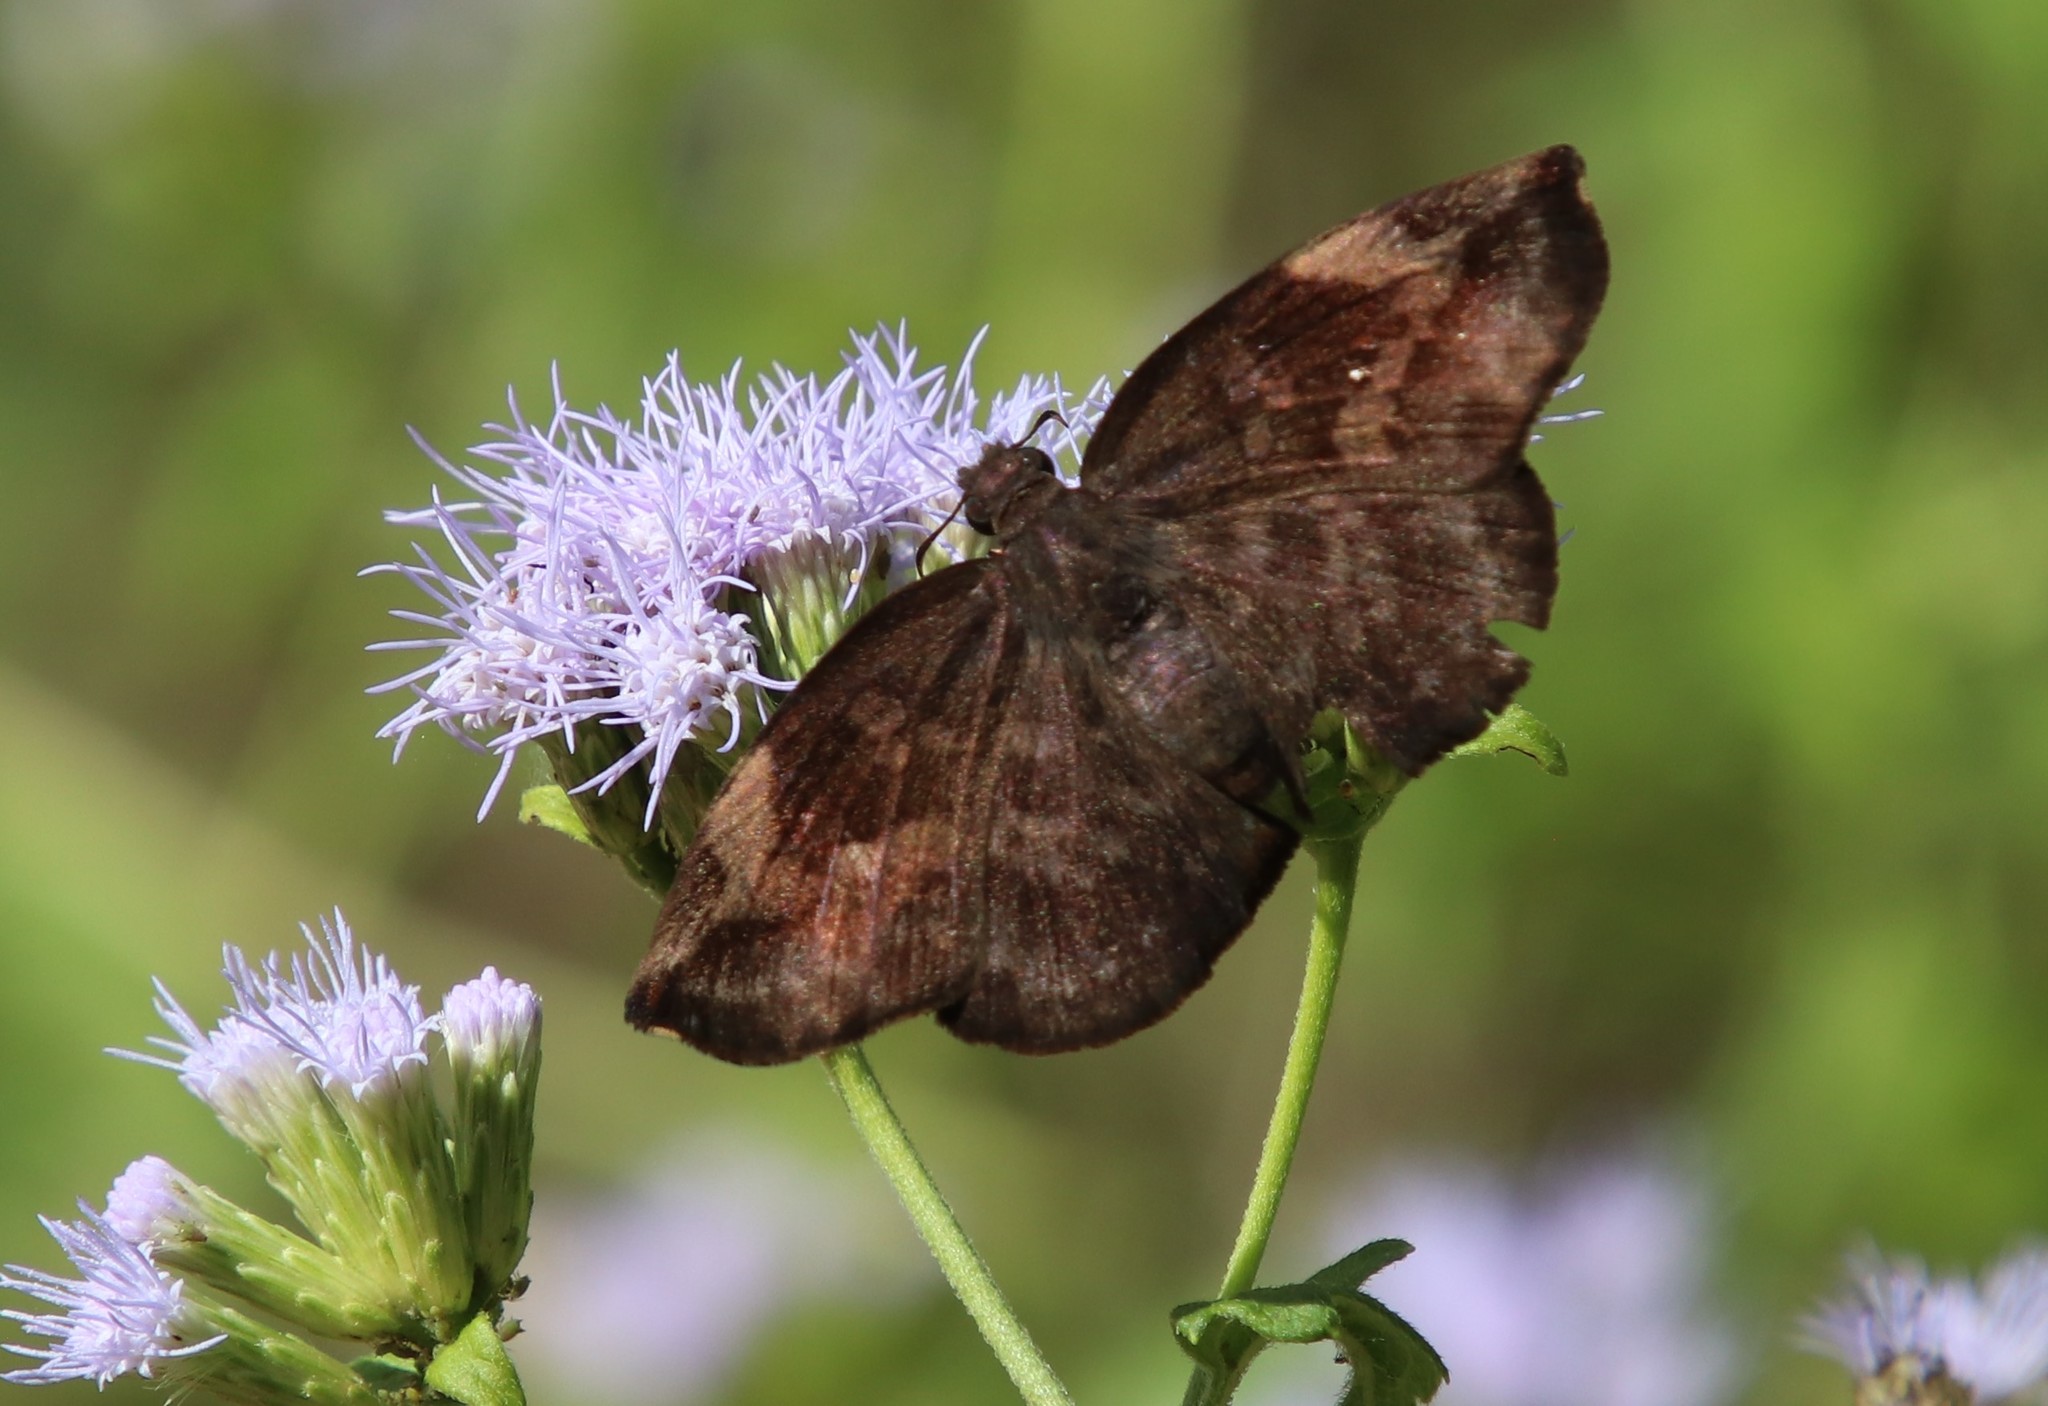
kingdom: Animalia
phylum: Arthropoda
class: Insecta
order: Lepidoptera
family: Hesperiidae
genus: Achlyodes
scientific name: Achlyodes thraso
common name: Sickle-winged skipper
